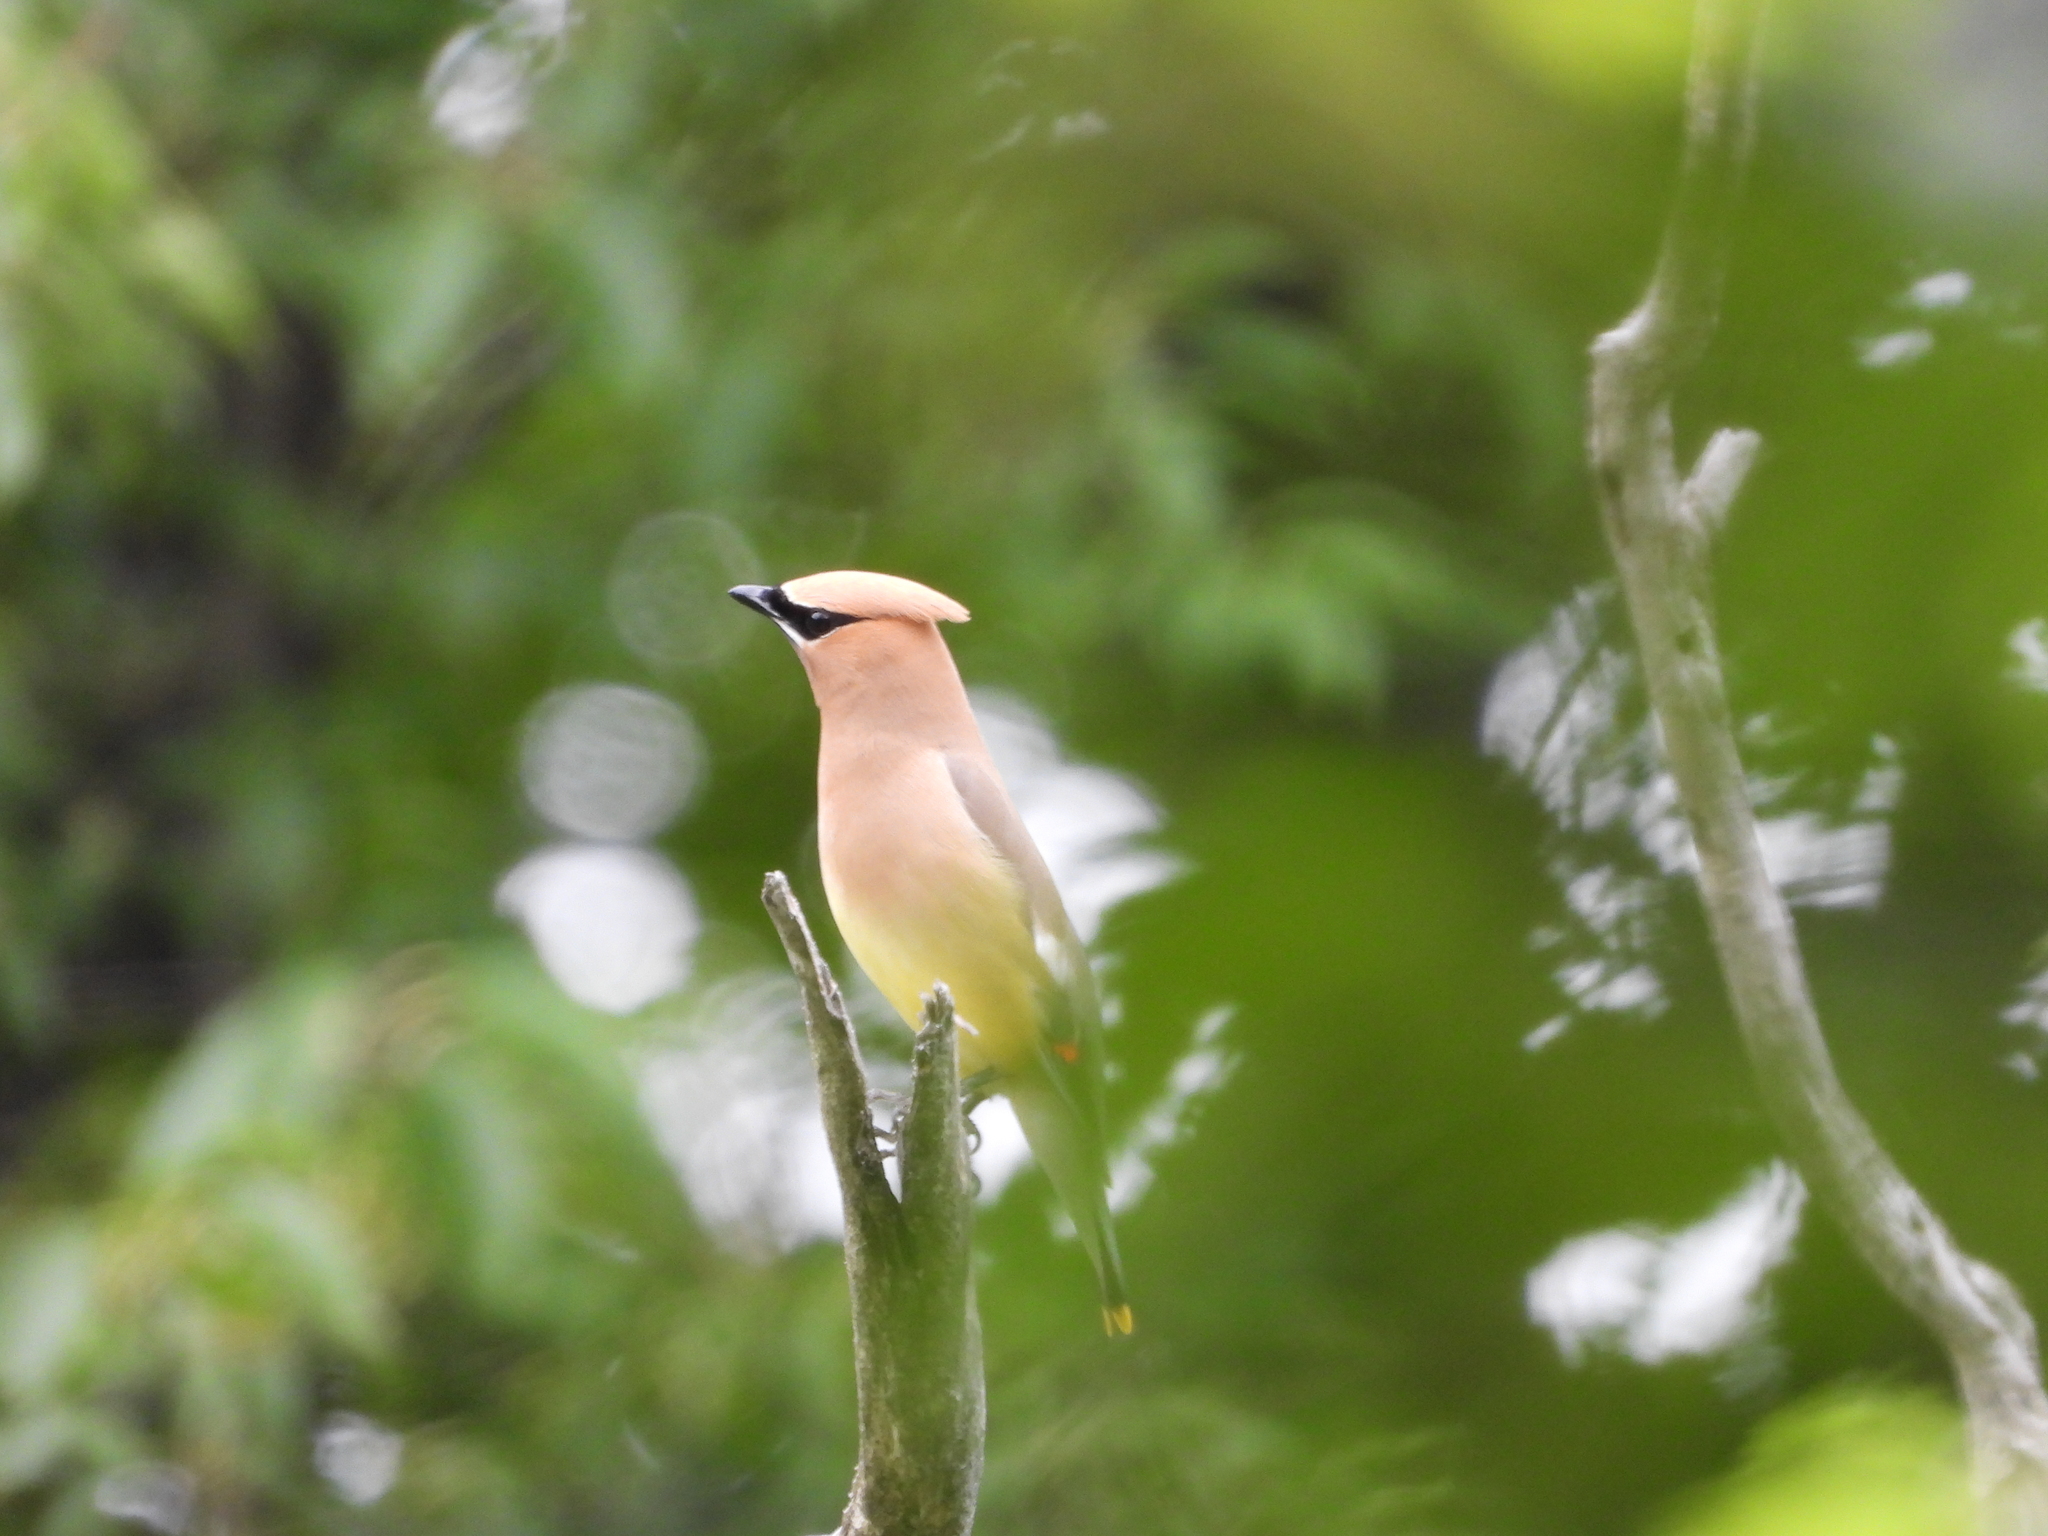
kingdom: Animalia
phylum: Chordata
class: Aves
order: Passeriformes
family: Bombycillidae
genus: Bombycilla
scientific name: Bombycilla cedrorum
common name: Cedar waxwing
